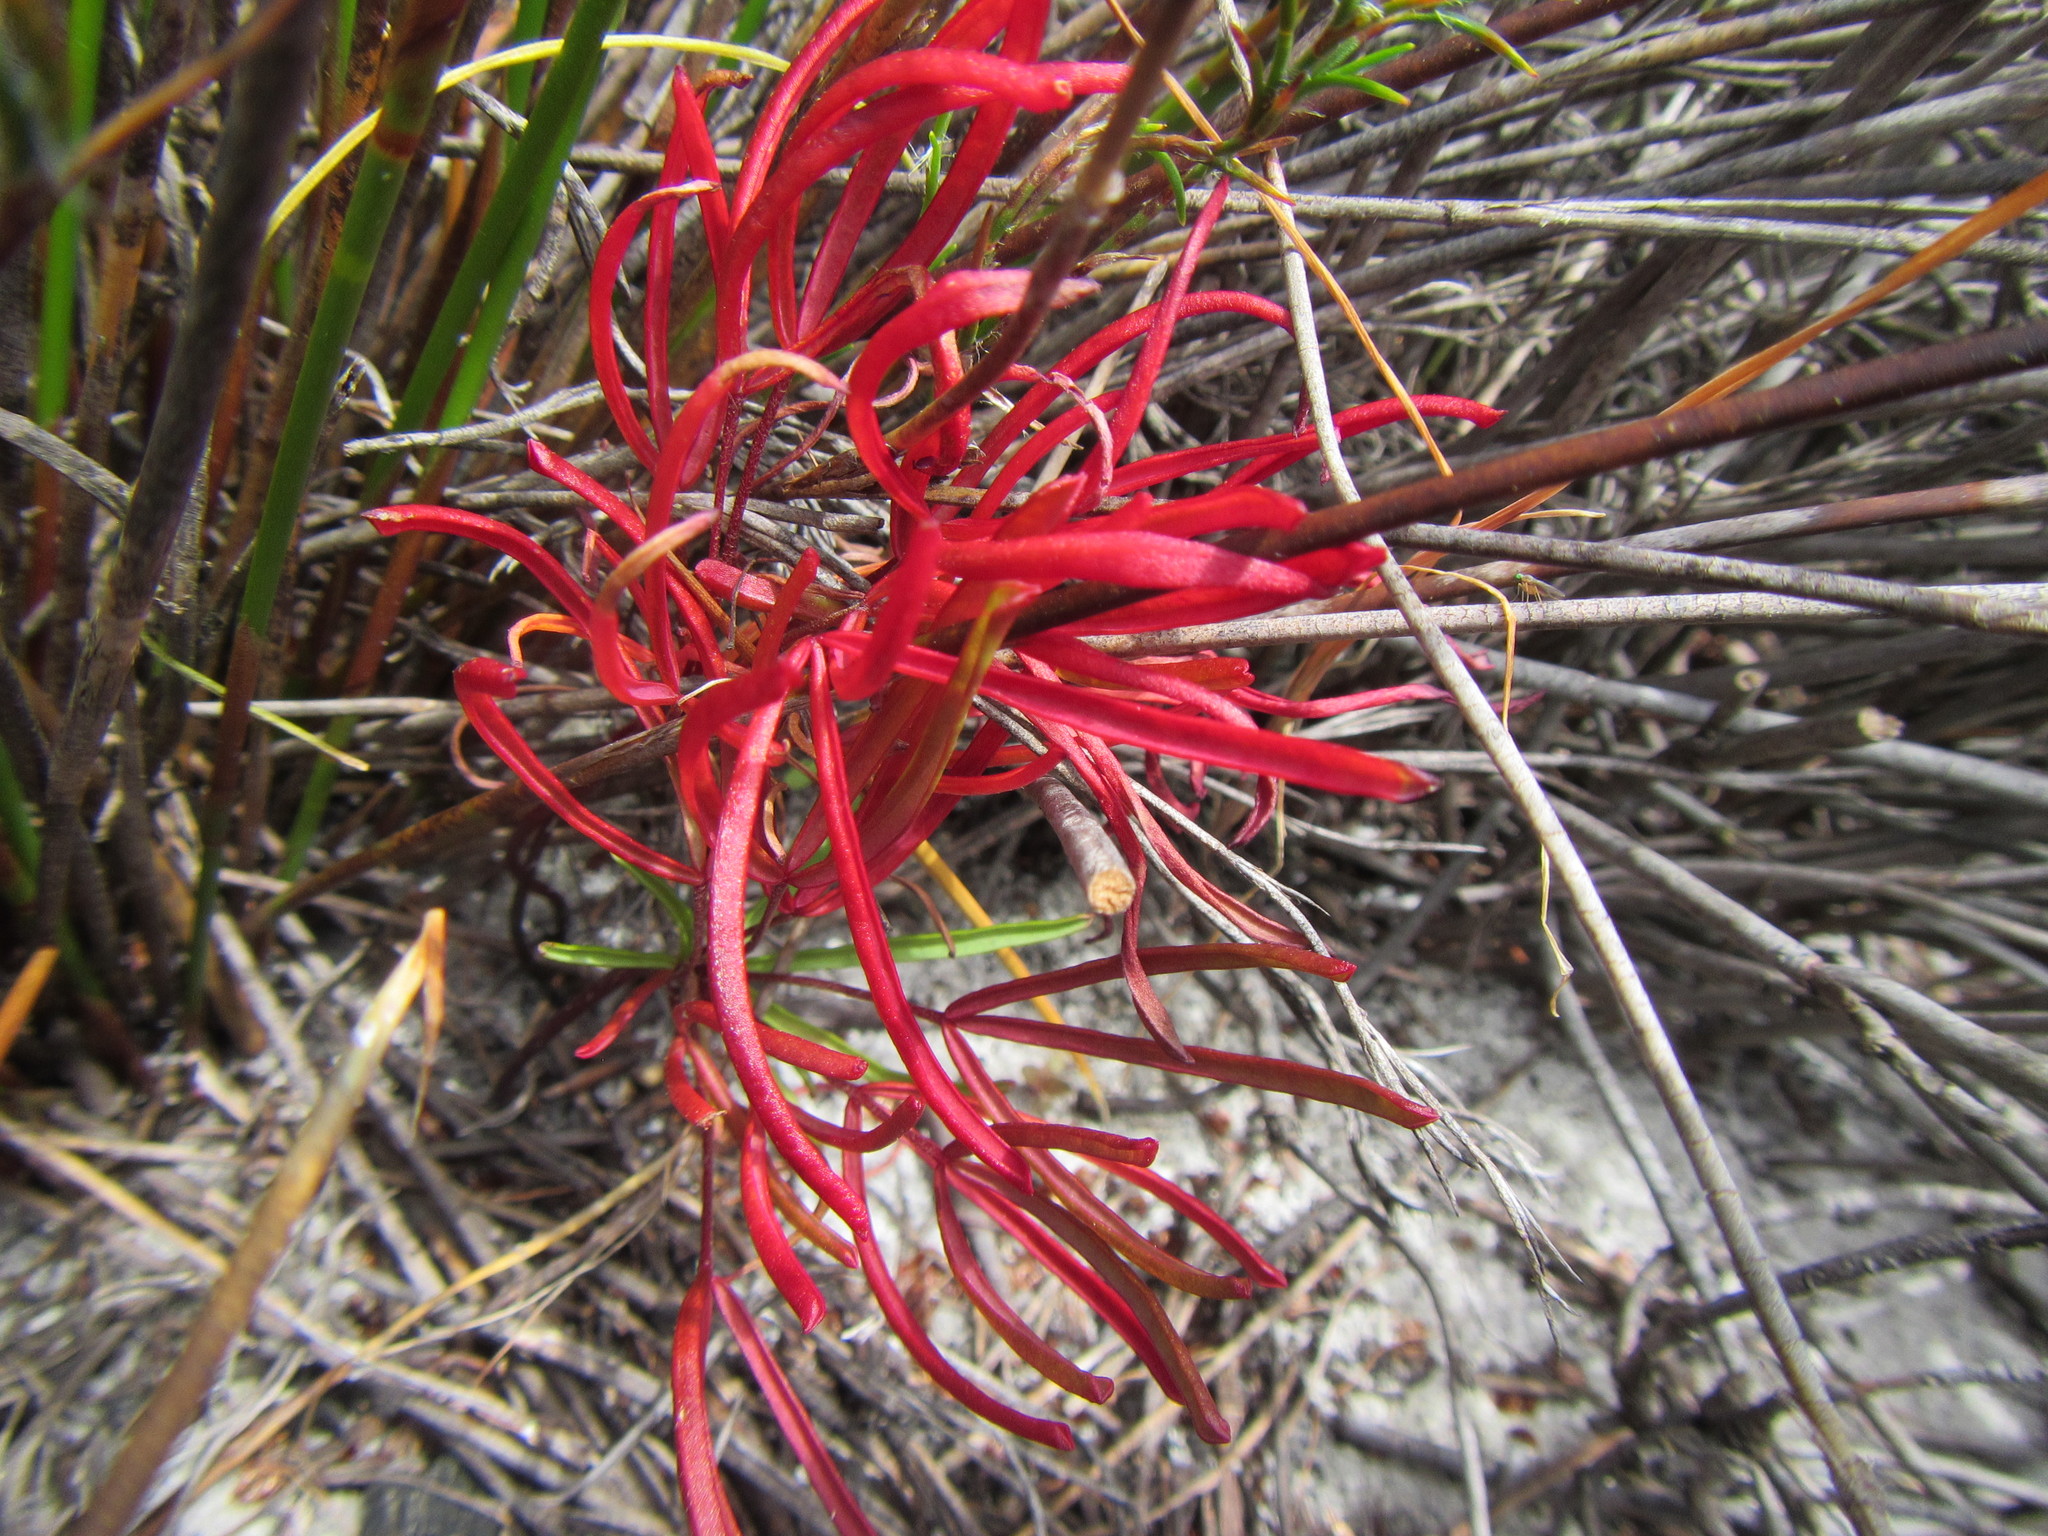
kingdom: Plantae
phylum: Tracheophyta
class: Magnoliopsida
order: Oxalidales
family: Oxalidaceae
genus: Oxalis
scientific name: Oxalis polyphylla
